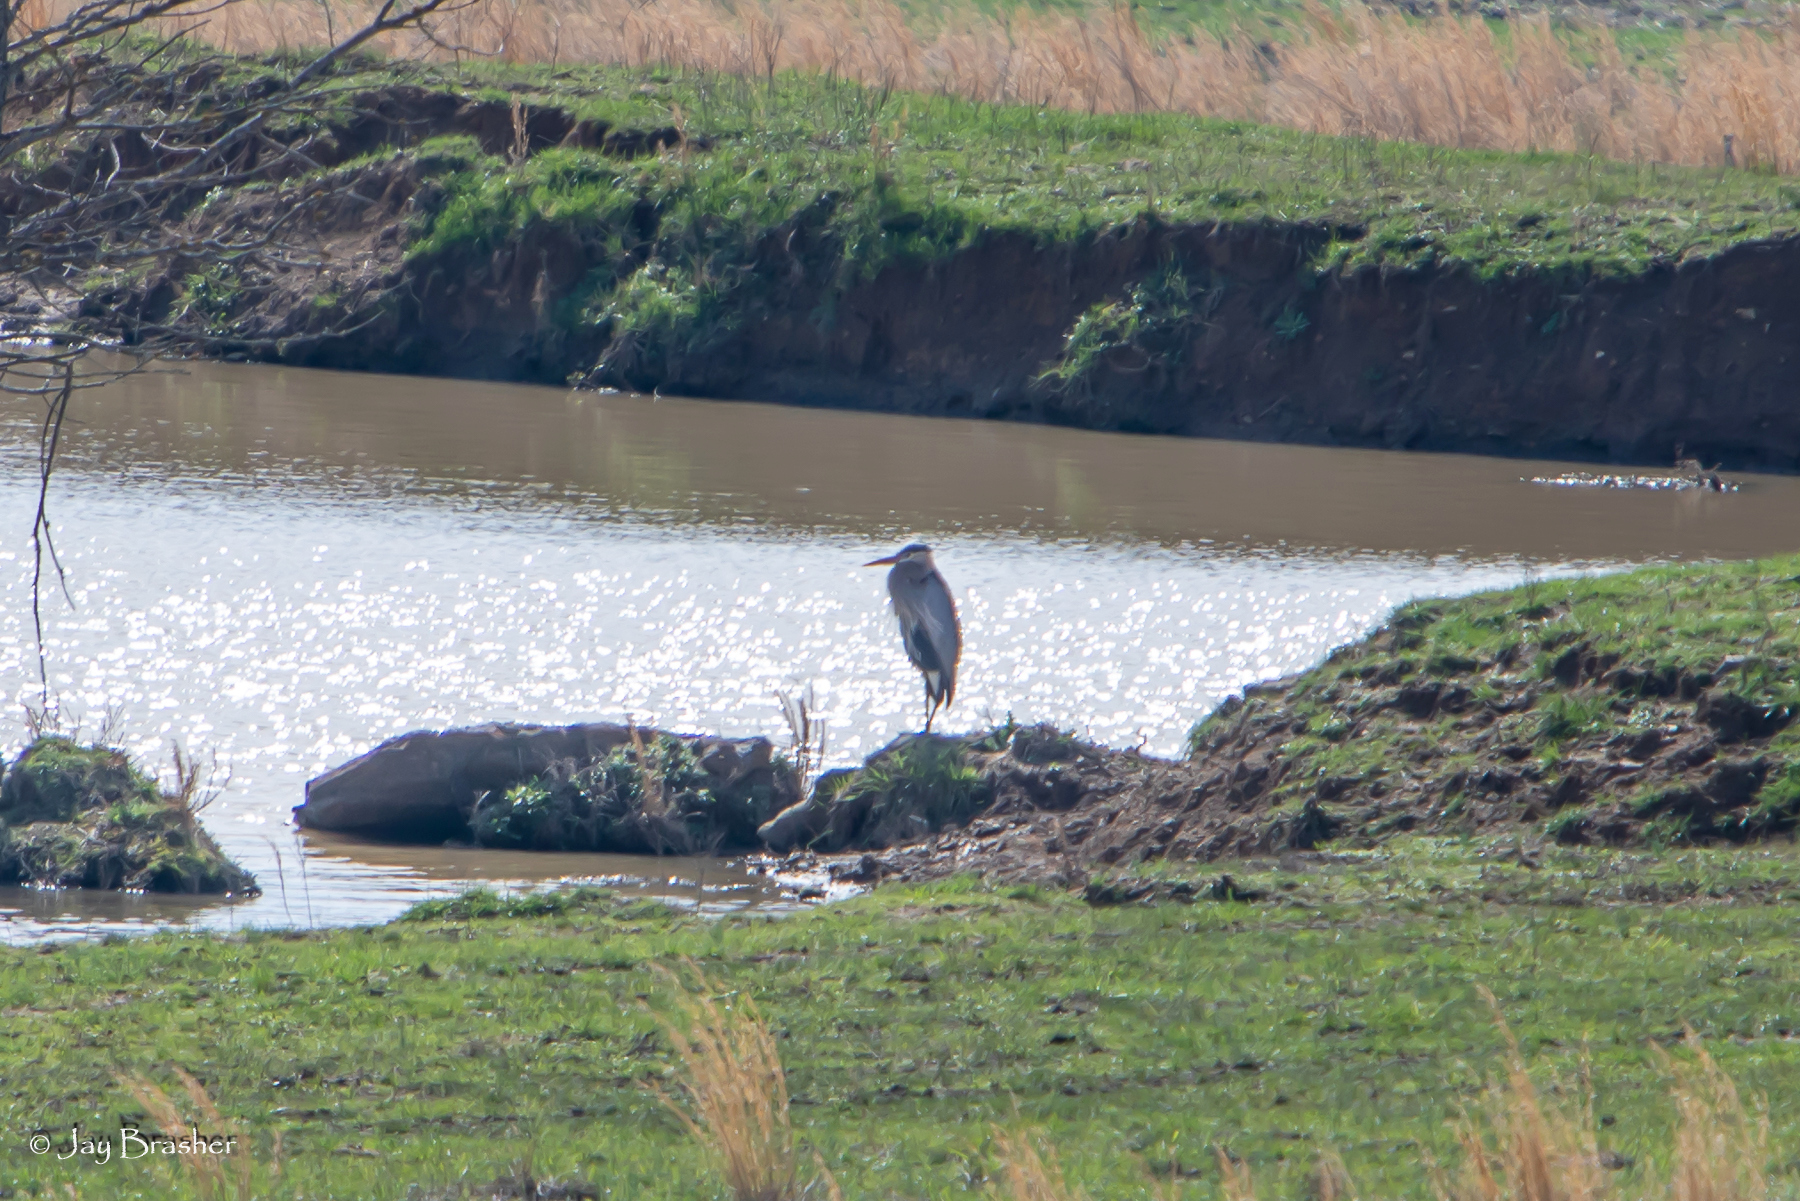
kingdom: Animalia
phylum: Chordata
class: Aves
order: Pelecaniformes
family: Ardeidae
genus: Ardea
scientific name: Ardea herodias
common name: Great blue heron
